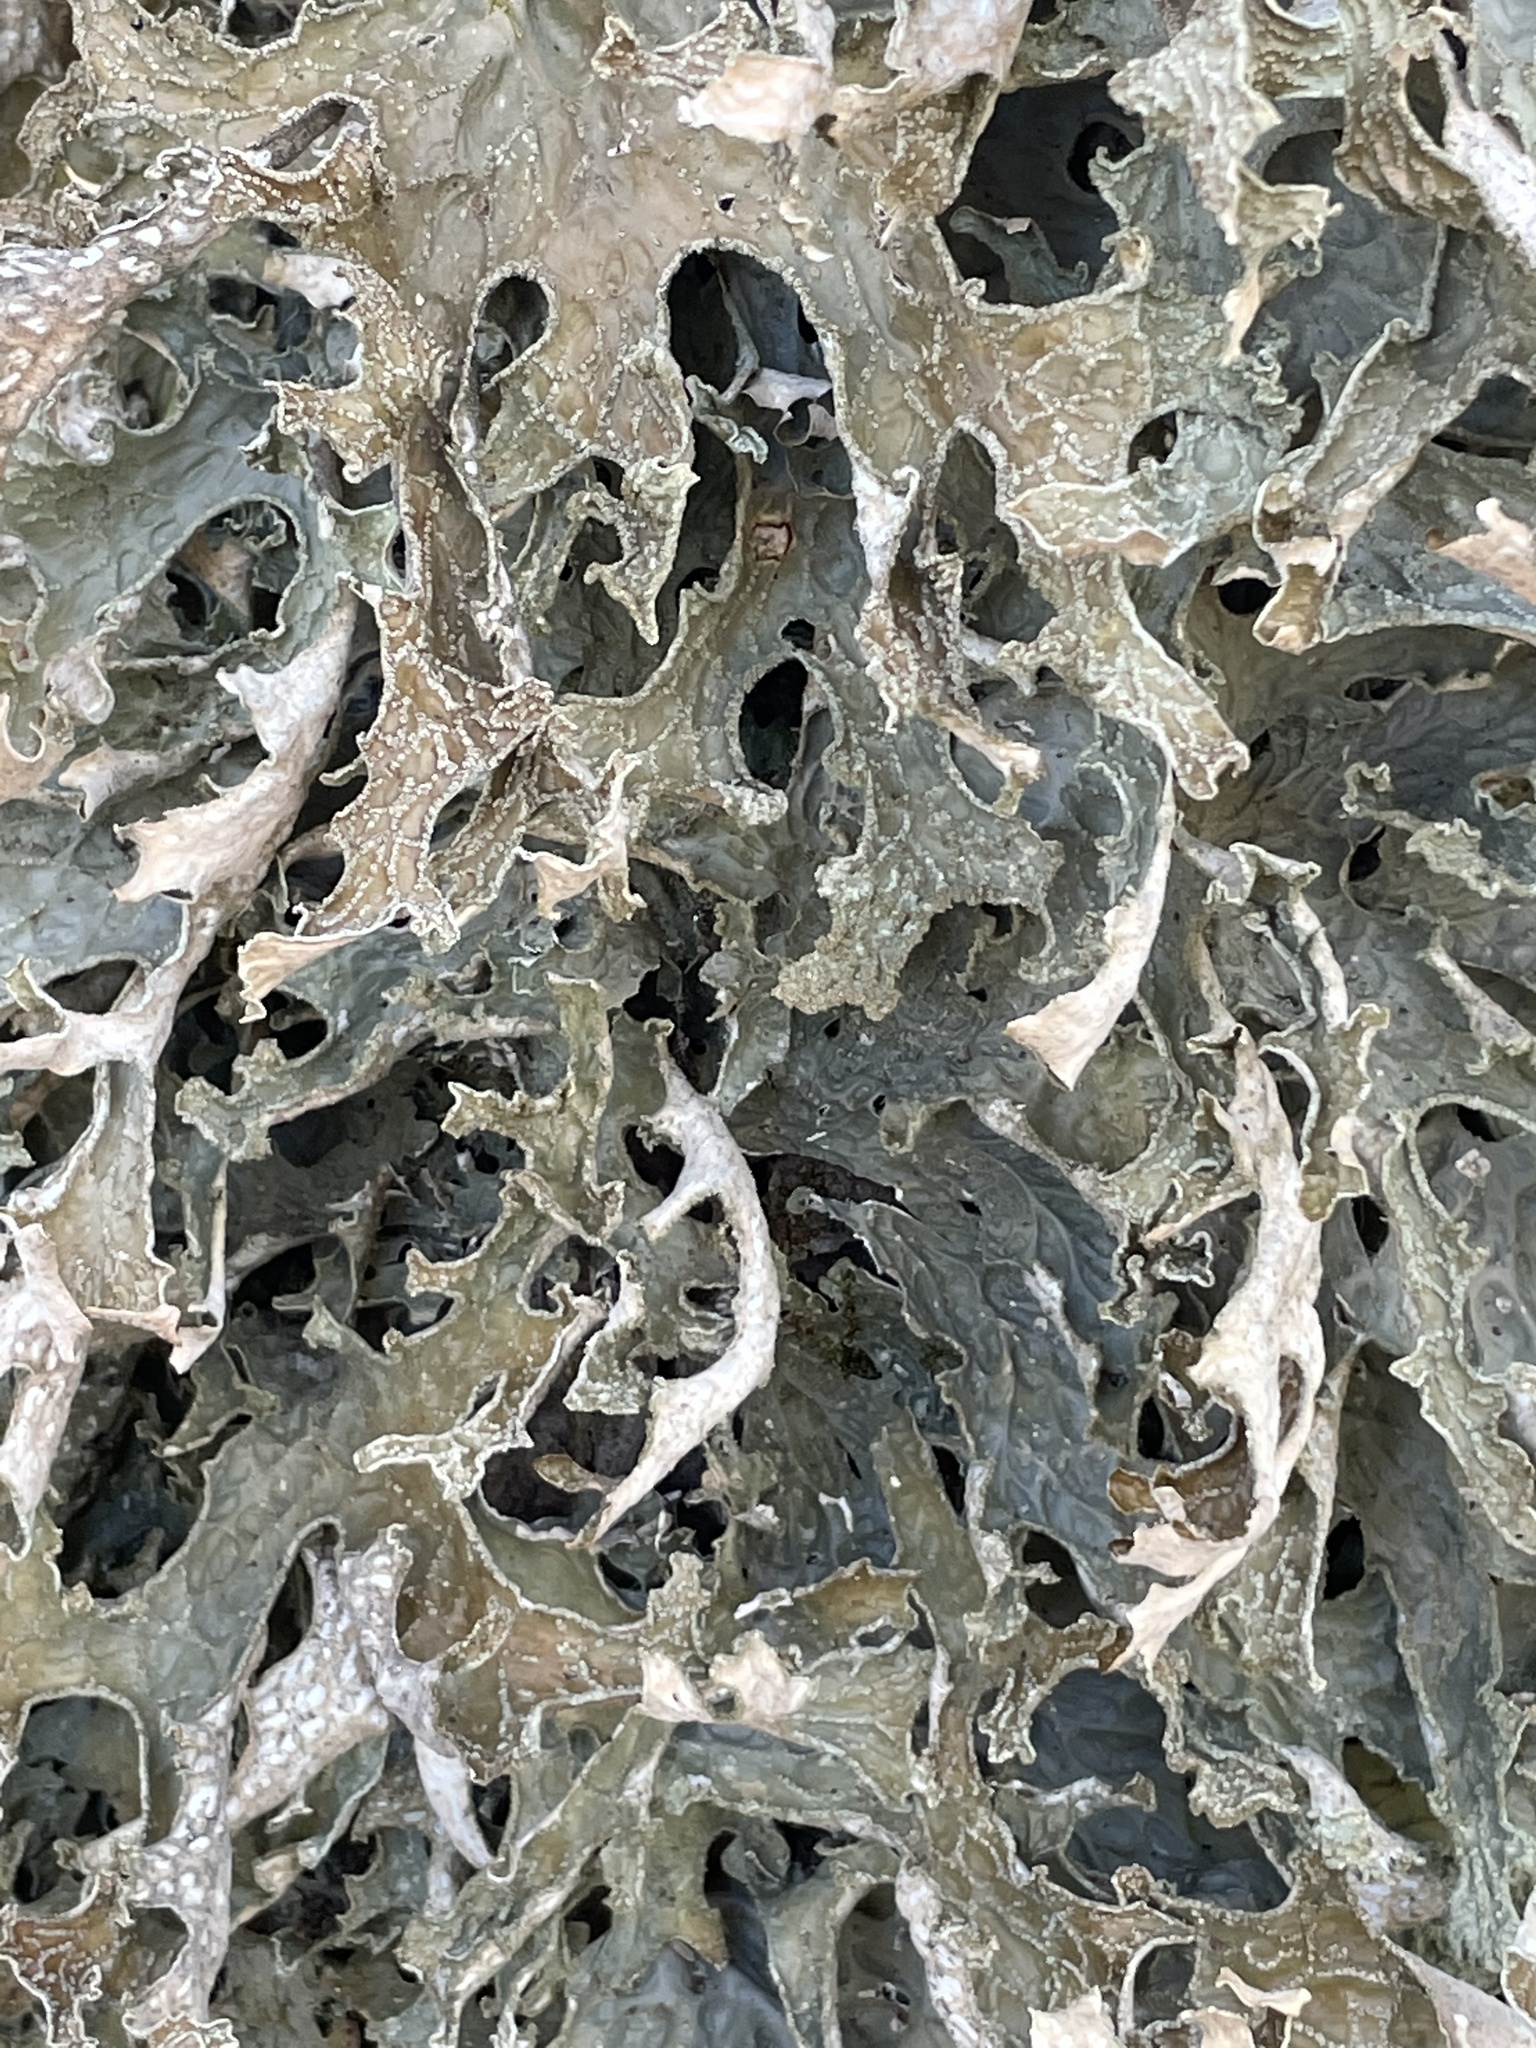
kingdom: Fungi
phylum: Ascomycota
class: Lecanoromycetes
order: Peltigerales
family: Lobariaceae
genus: Lobaria
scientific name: Lobaria pulmonaria
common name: Lungwort
